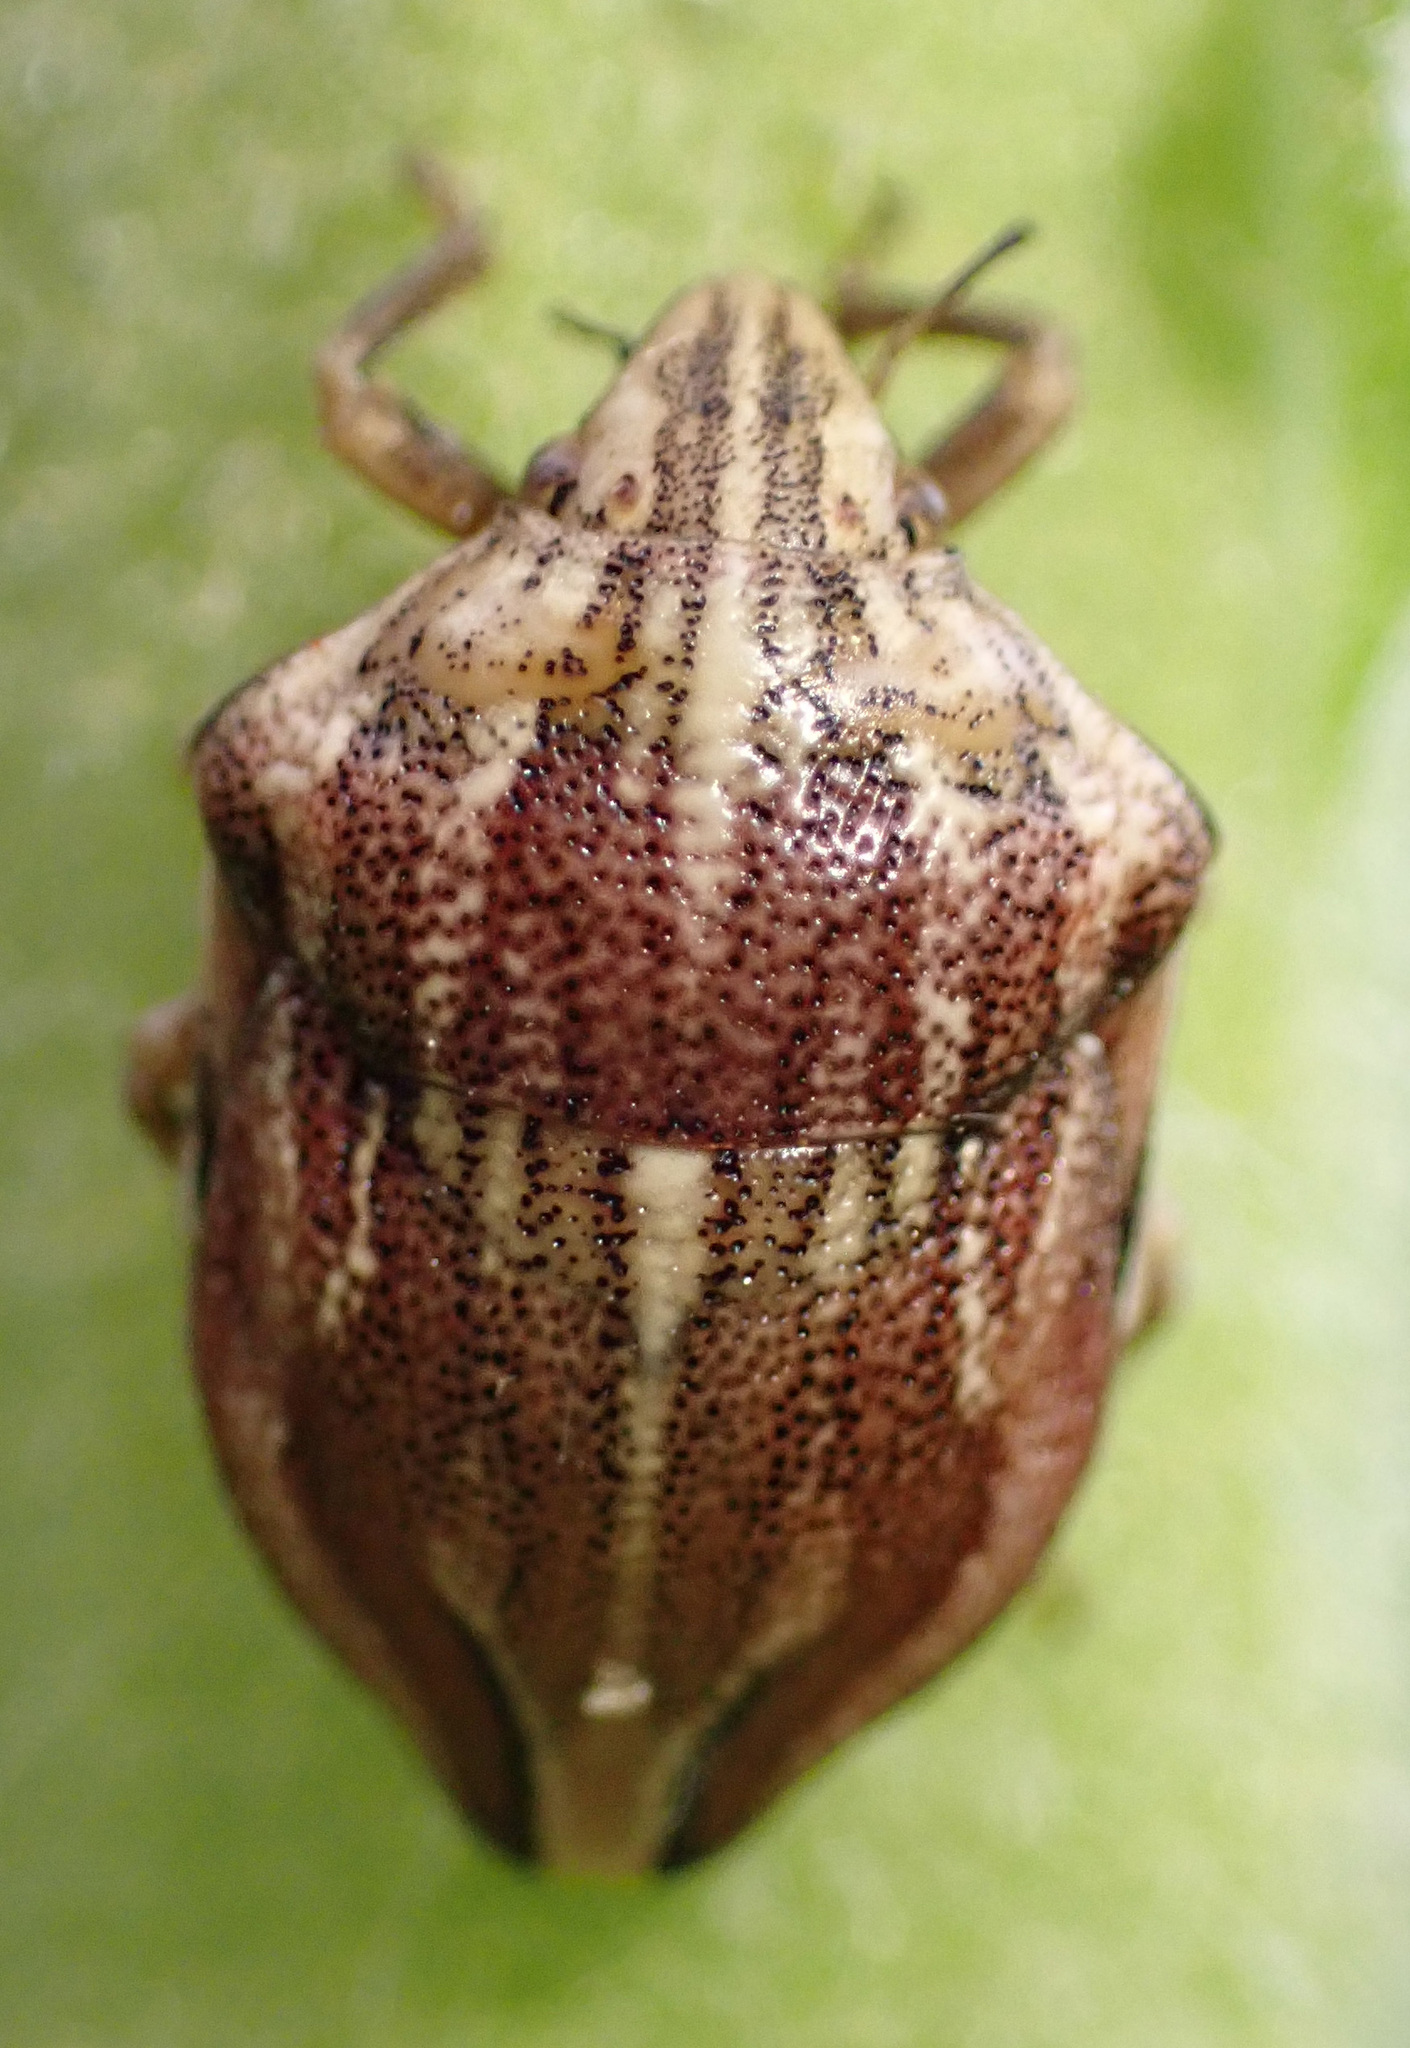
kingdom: Animalia
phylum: Arthropoda
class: Insecta
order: Hemiptera
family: Scutelleridae
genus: Odontotarsus
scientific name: Odontotarsus purpureolineatus
